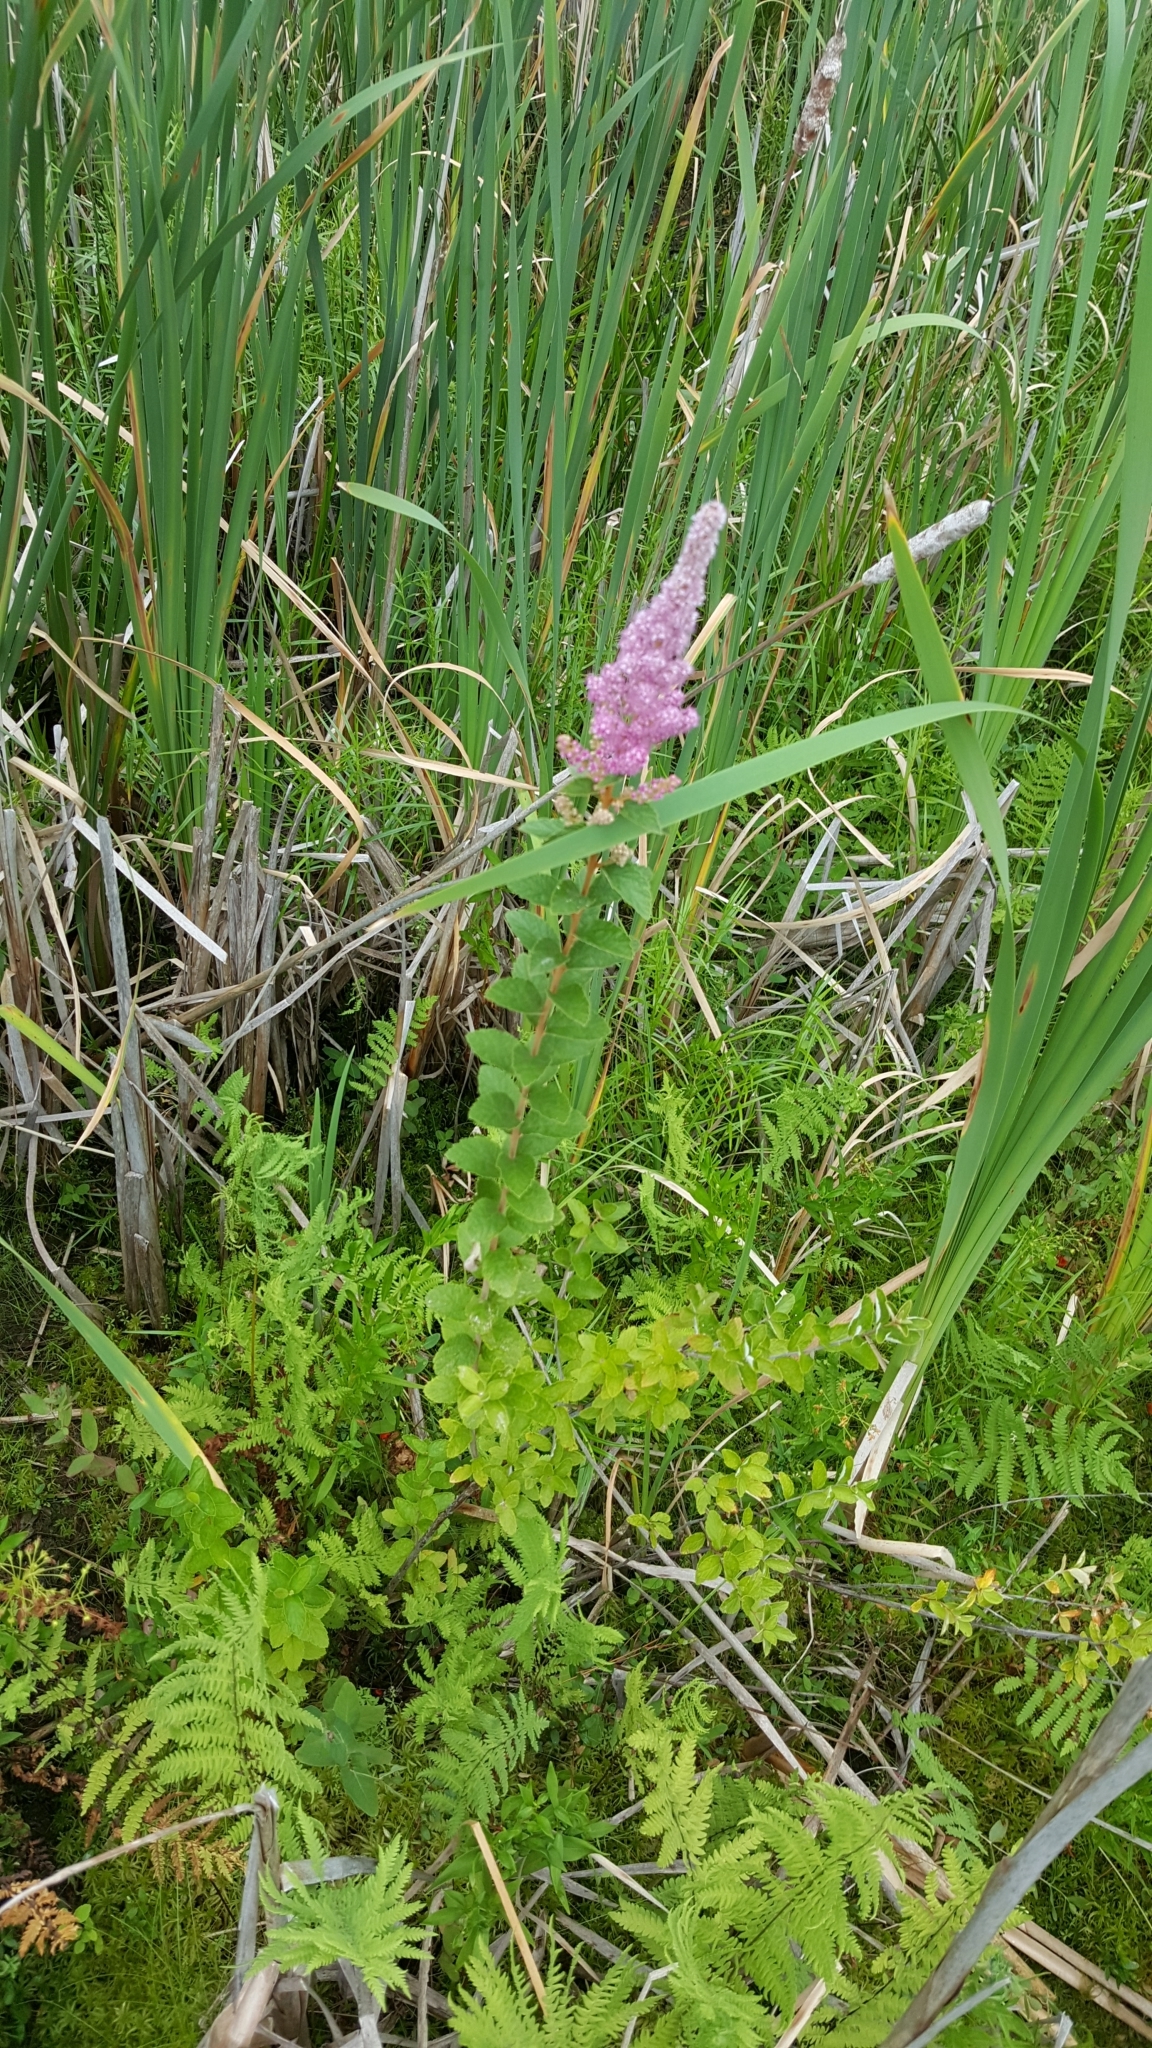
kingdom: Plantae
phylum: Tracheophyta
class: Magnoliopsida
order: Rosales
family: Rosaceae
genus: Spiraea
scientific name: Spiraea tomentosa
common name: Hardhack
